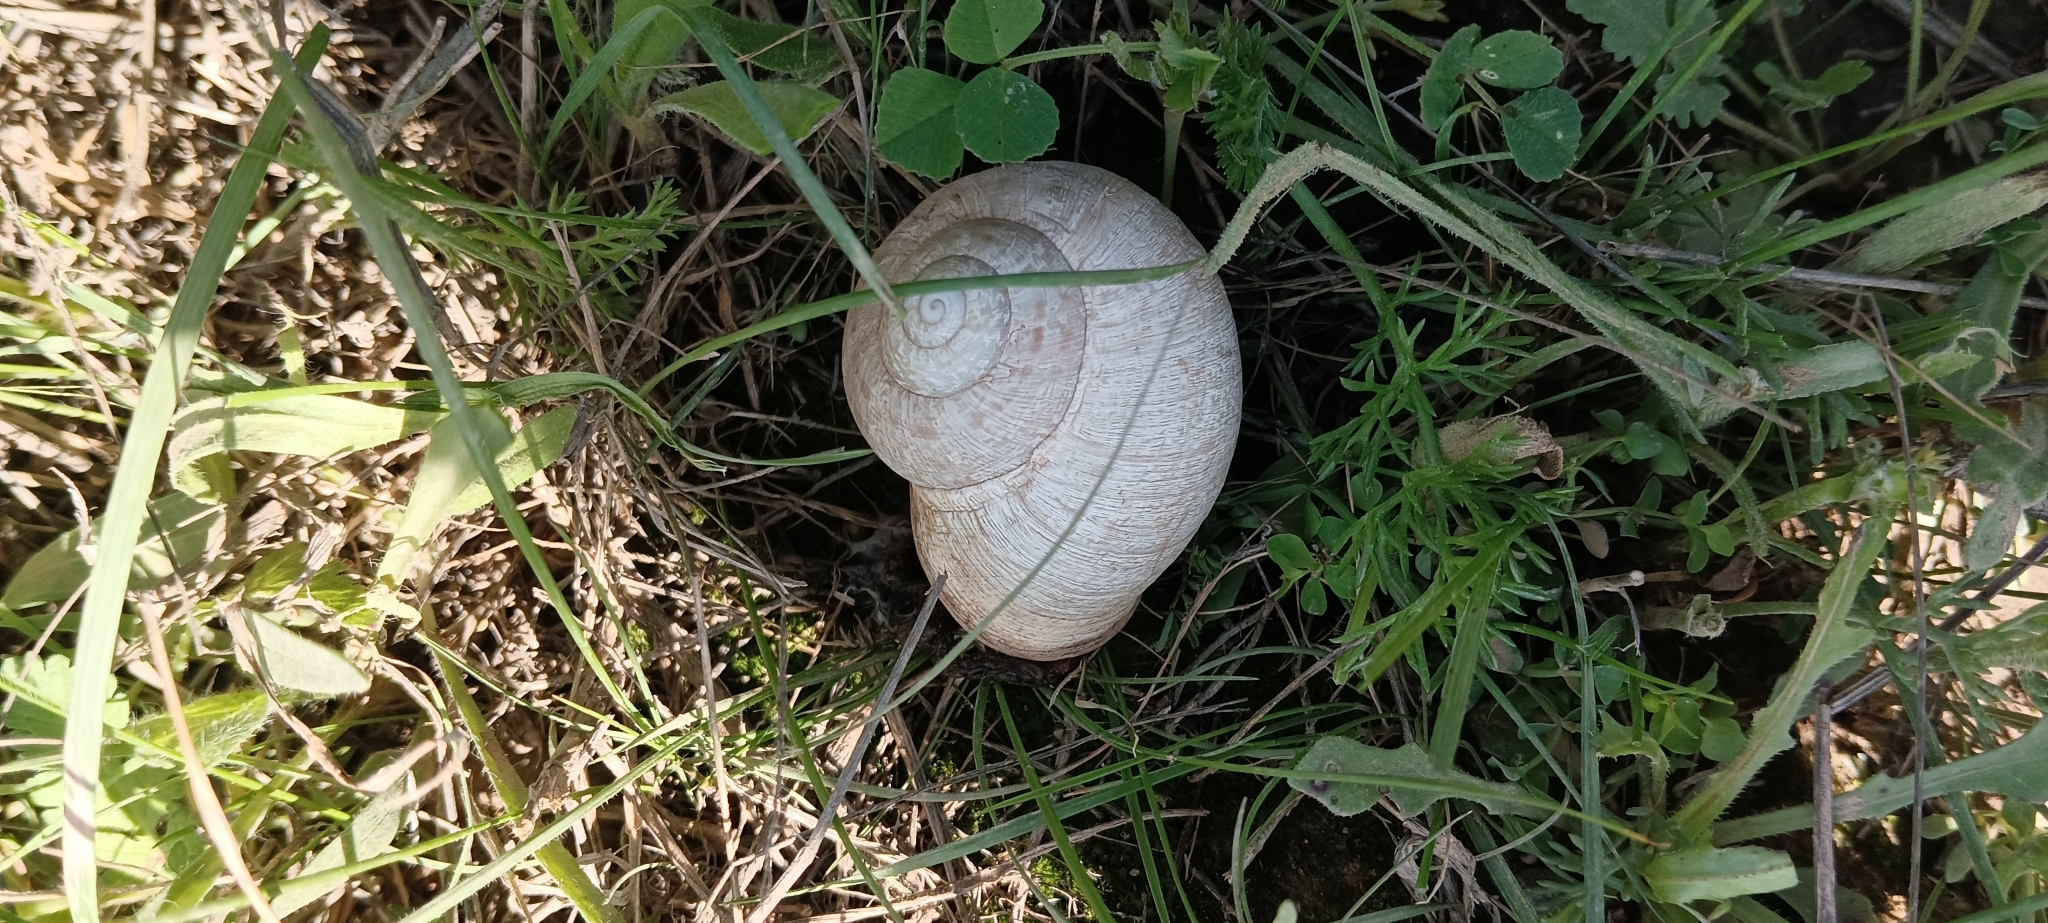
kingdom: Animalia
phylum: Mollusca
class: Gastropoda
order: Stylommatophora
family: Helicidae
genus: Iberus
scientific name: Iberus alonensis
